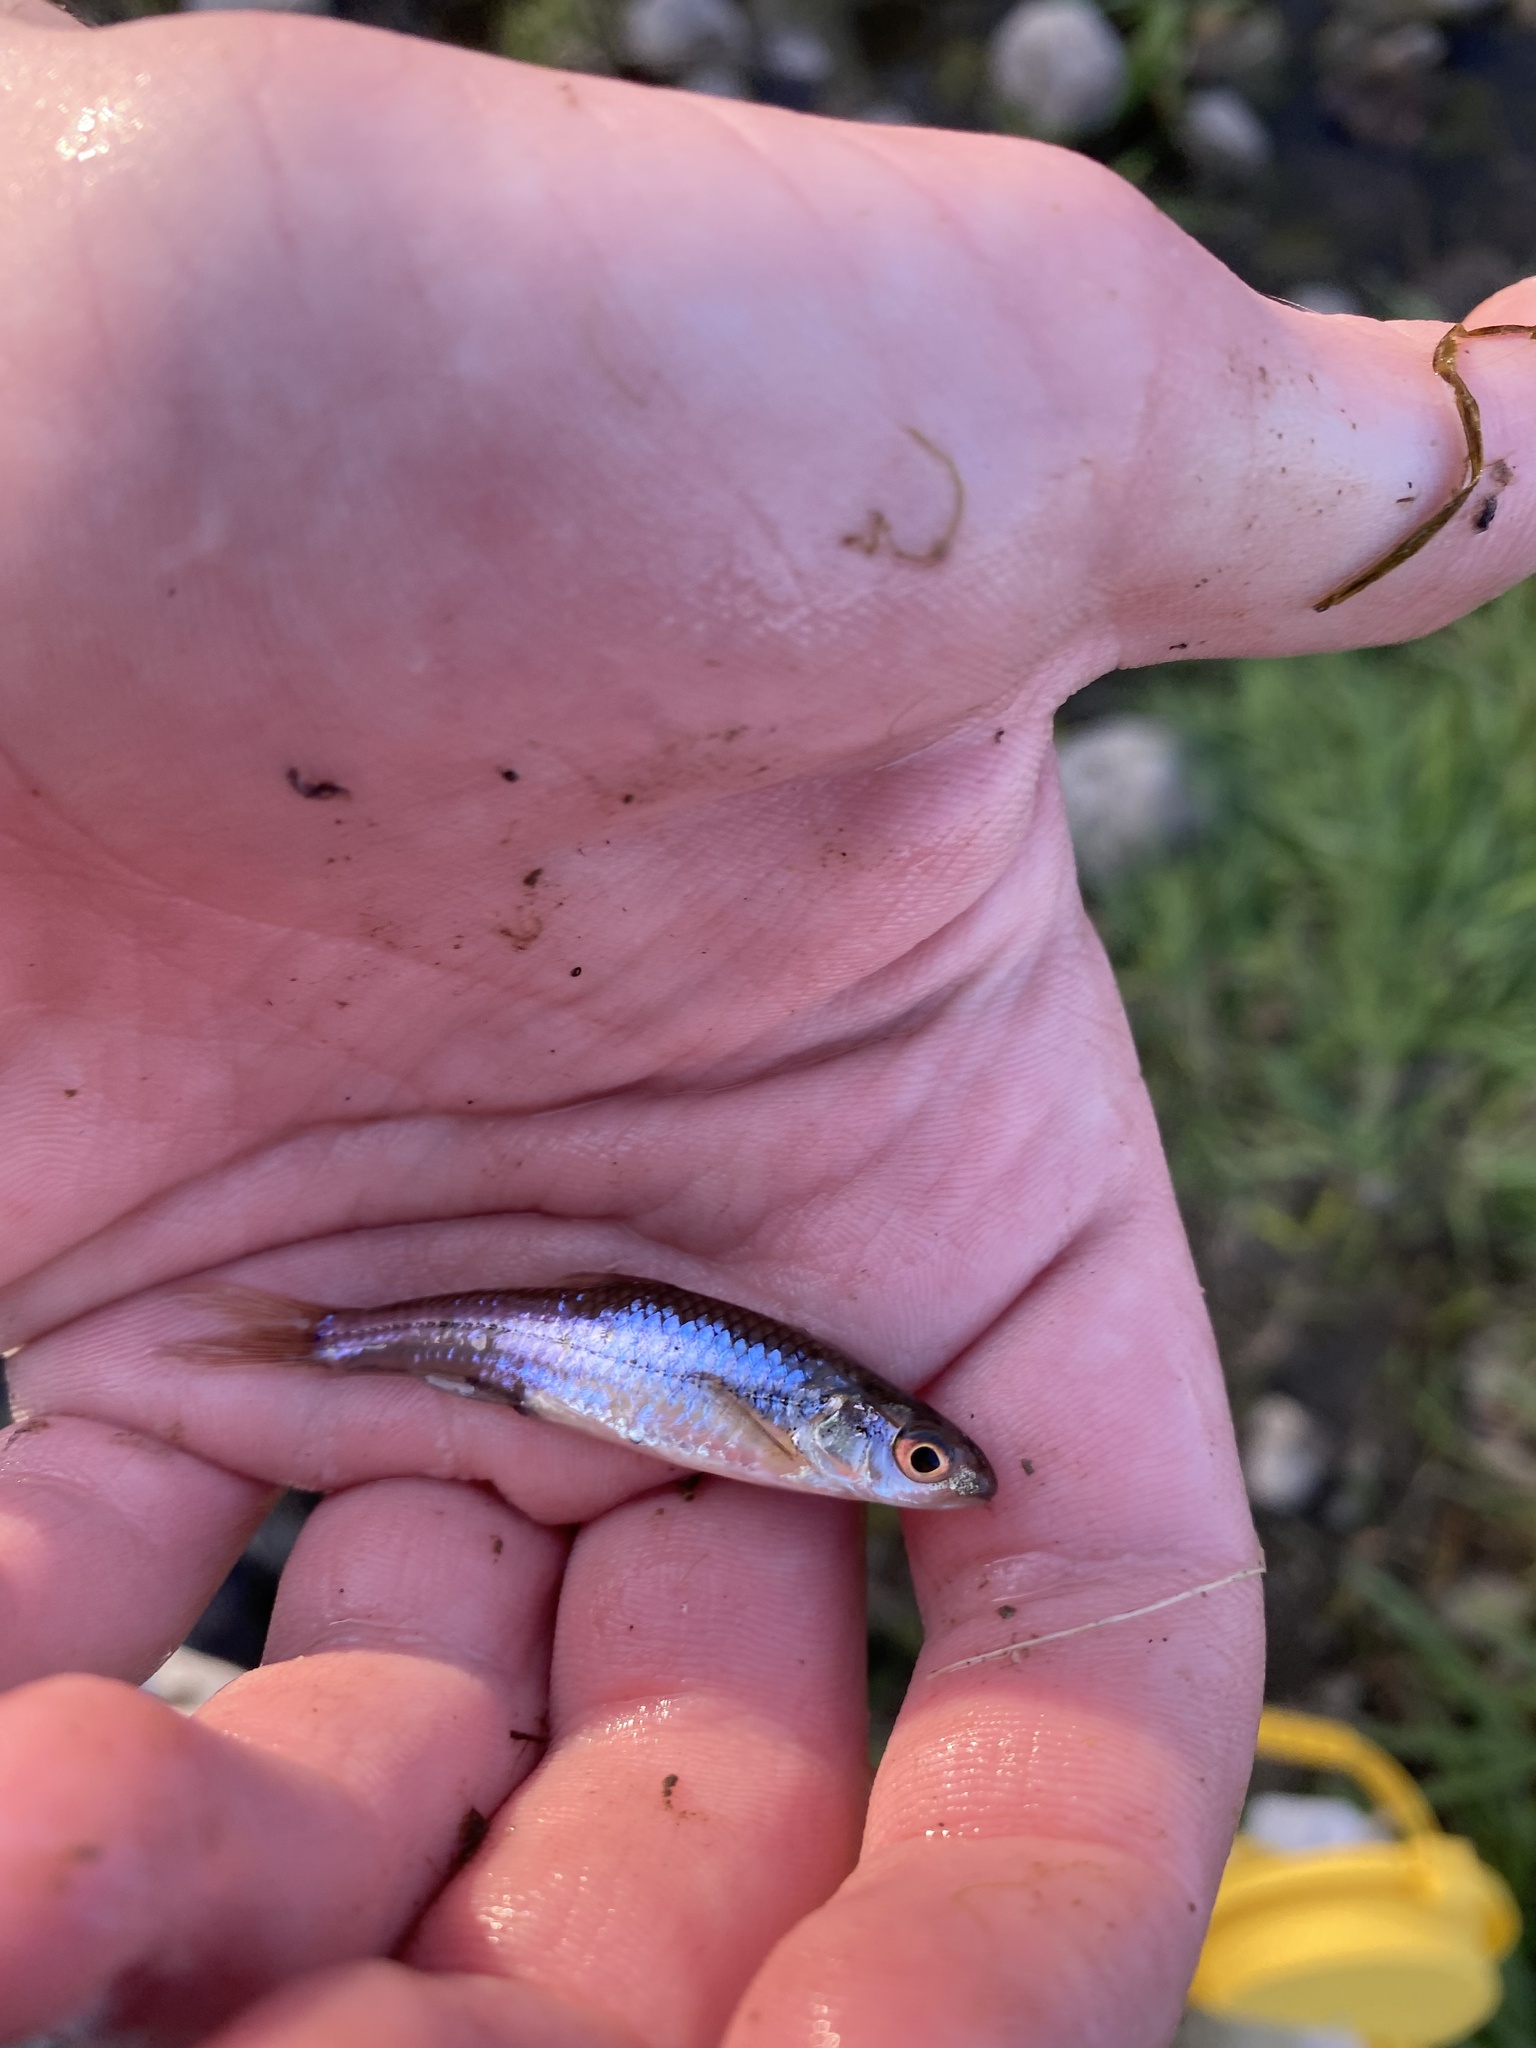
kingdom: Animalia
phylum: Chordata
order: Cypriniformes
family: Cyprinidae
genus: Notropis
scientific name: Notropis
